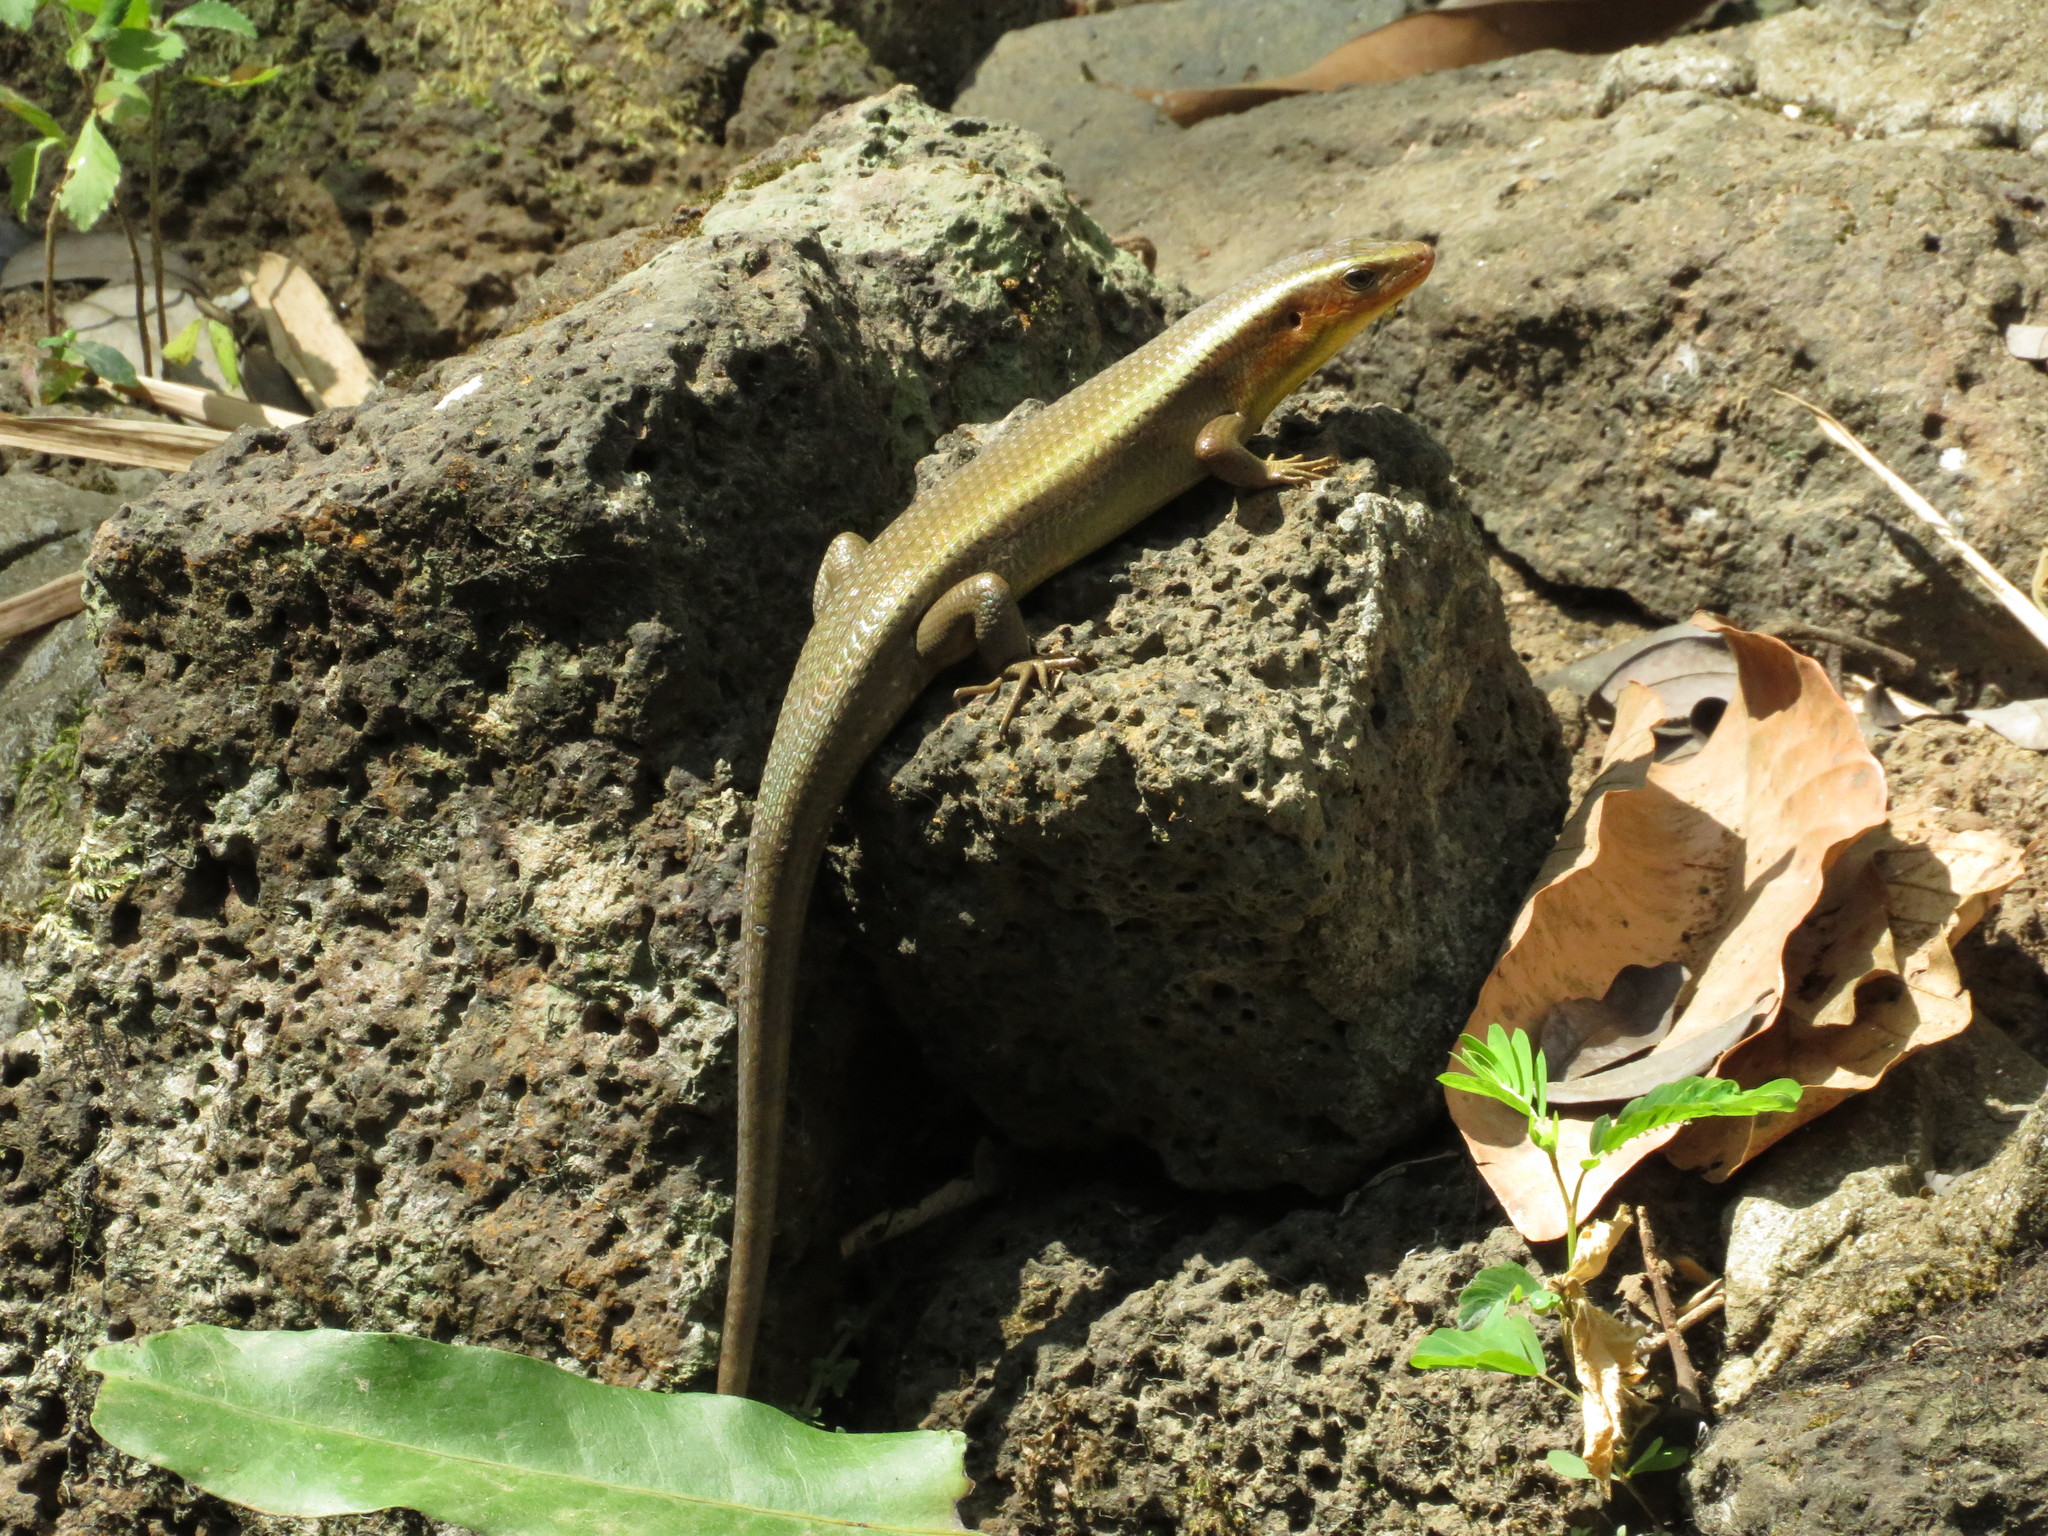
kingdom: Animalia
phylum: Chordata
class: Squamata
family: Scincidae
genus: Eutropis
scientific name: Eutropis multifasciata
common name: Common mabuya
